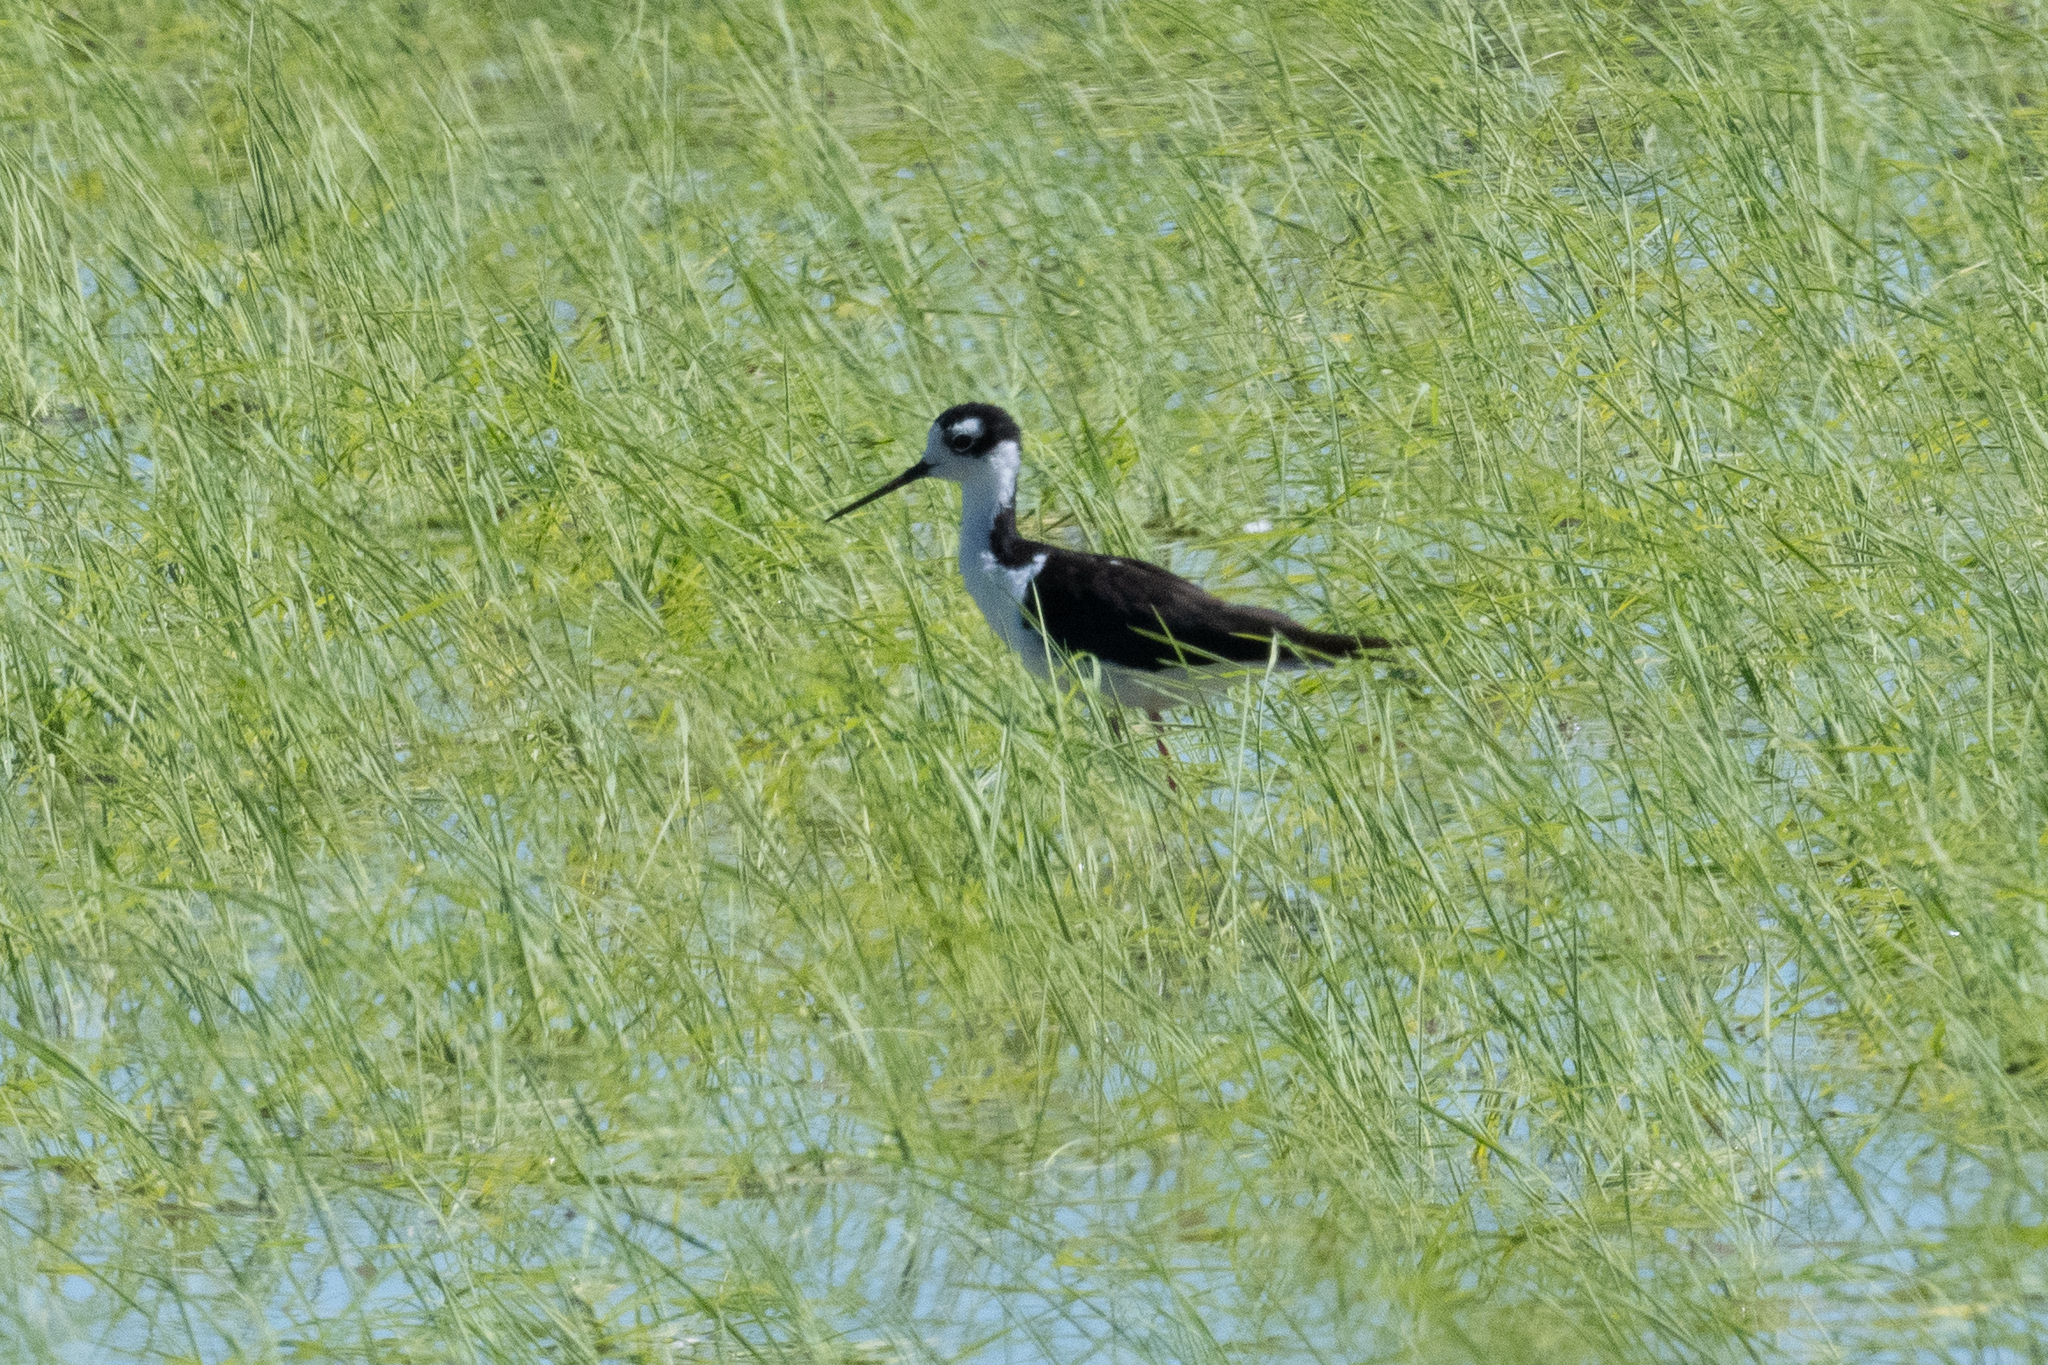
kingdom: Animalia
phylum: Chordata
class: Aves
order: Charadriiformes
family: Recurvirostridae
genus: Himantopus
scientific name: Himantopus mexicanus
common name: Black-necked stilt
